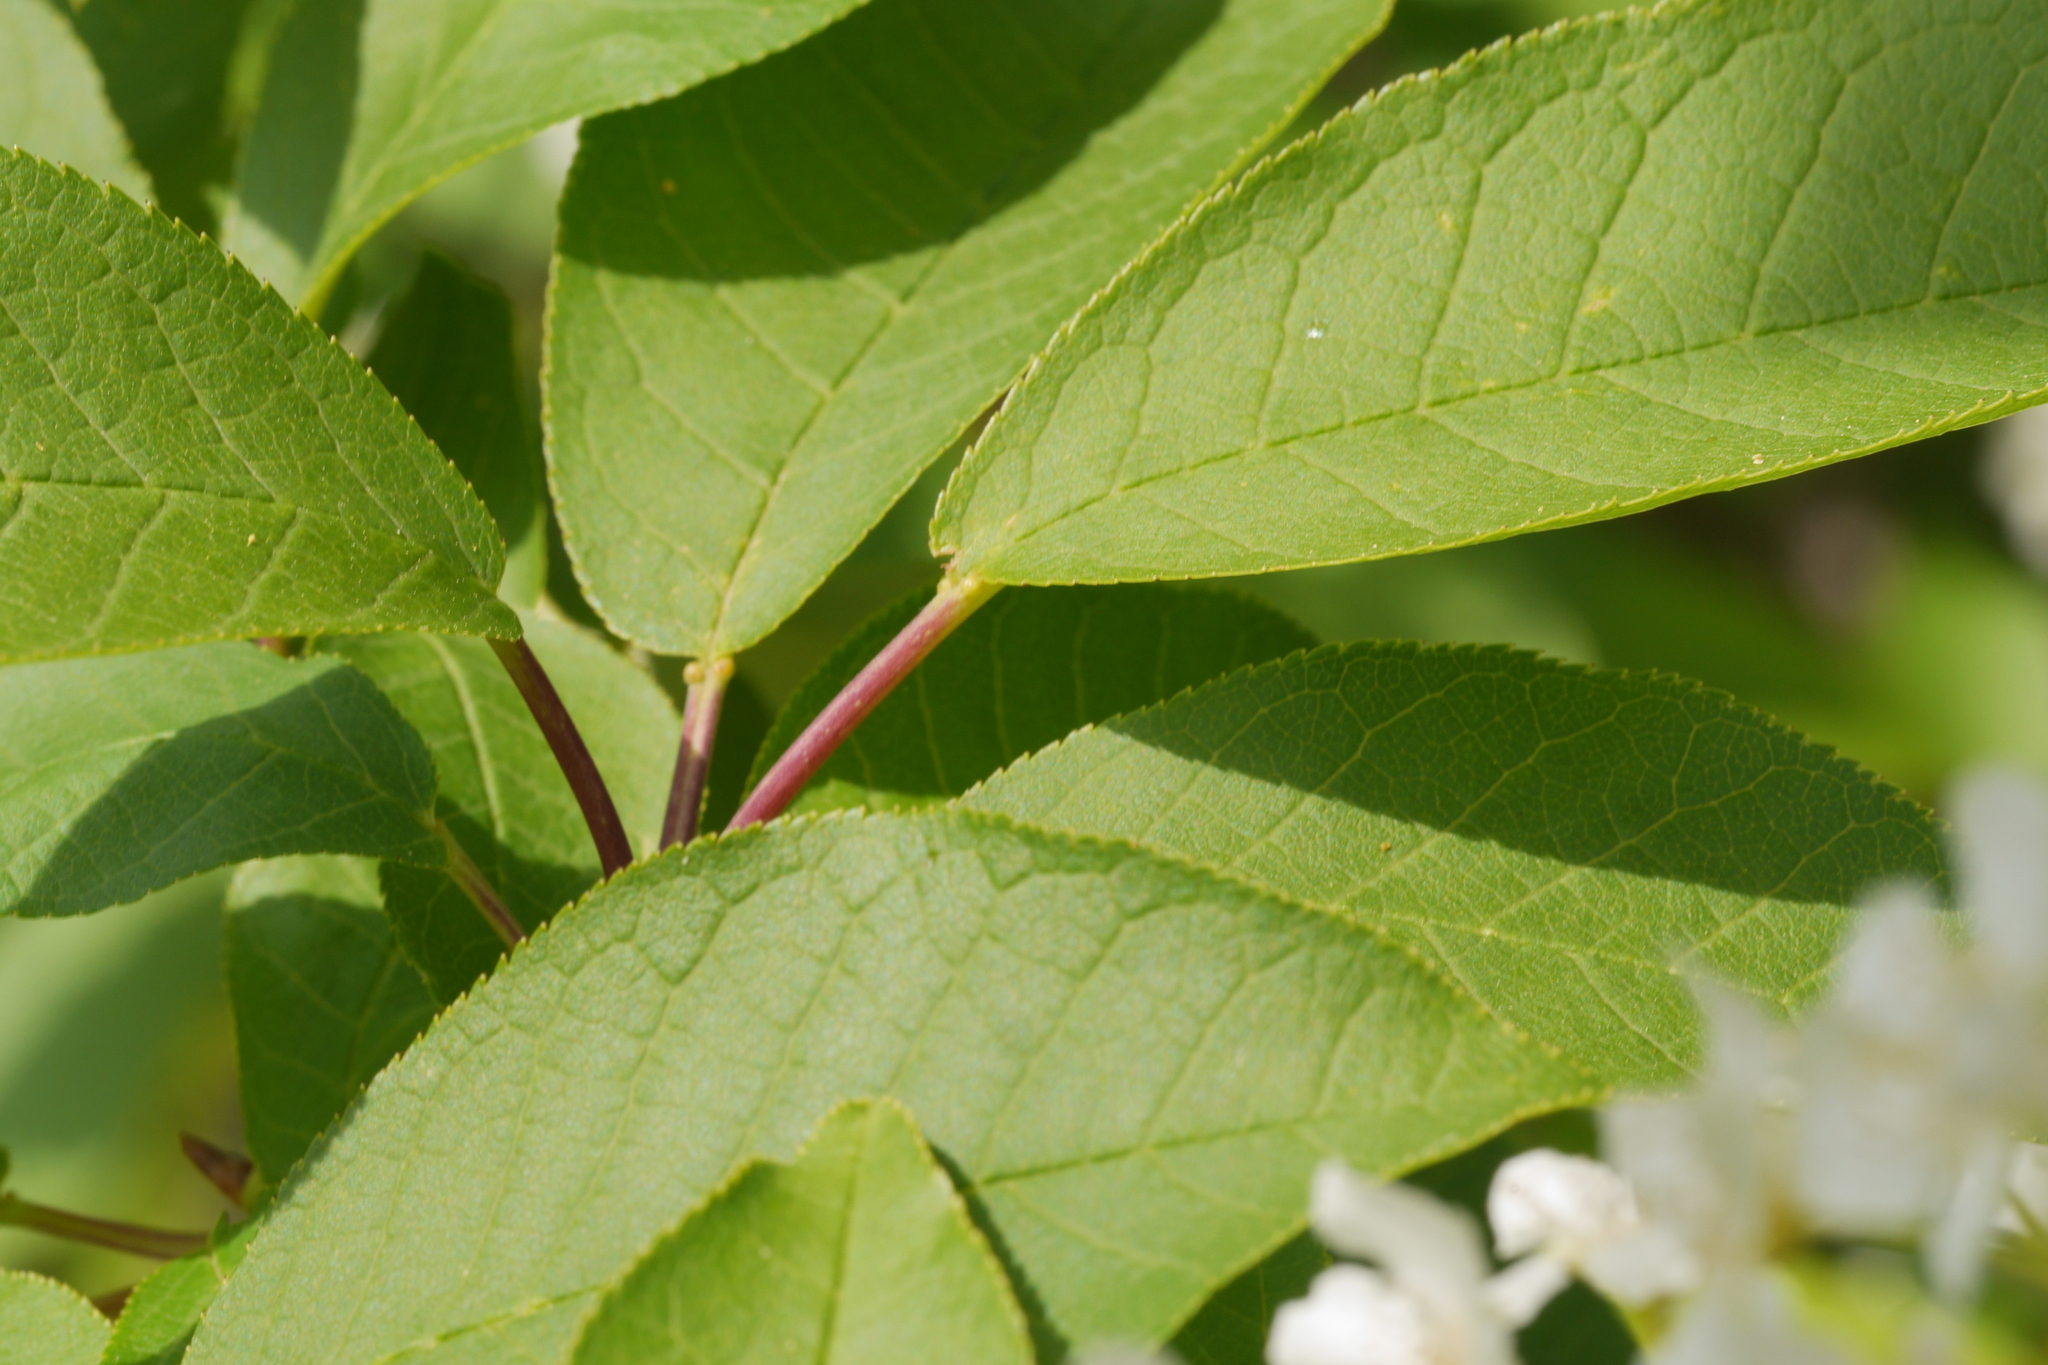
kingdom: Plantae
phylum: Tracheophyta
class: Magnoliopsida
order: Rosales
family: Rosaceae
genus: Prunus
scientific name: Prunus padus
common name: Bird cherry
